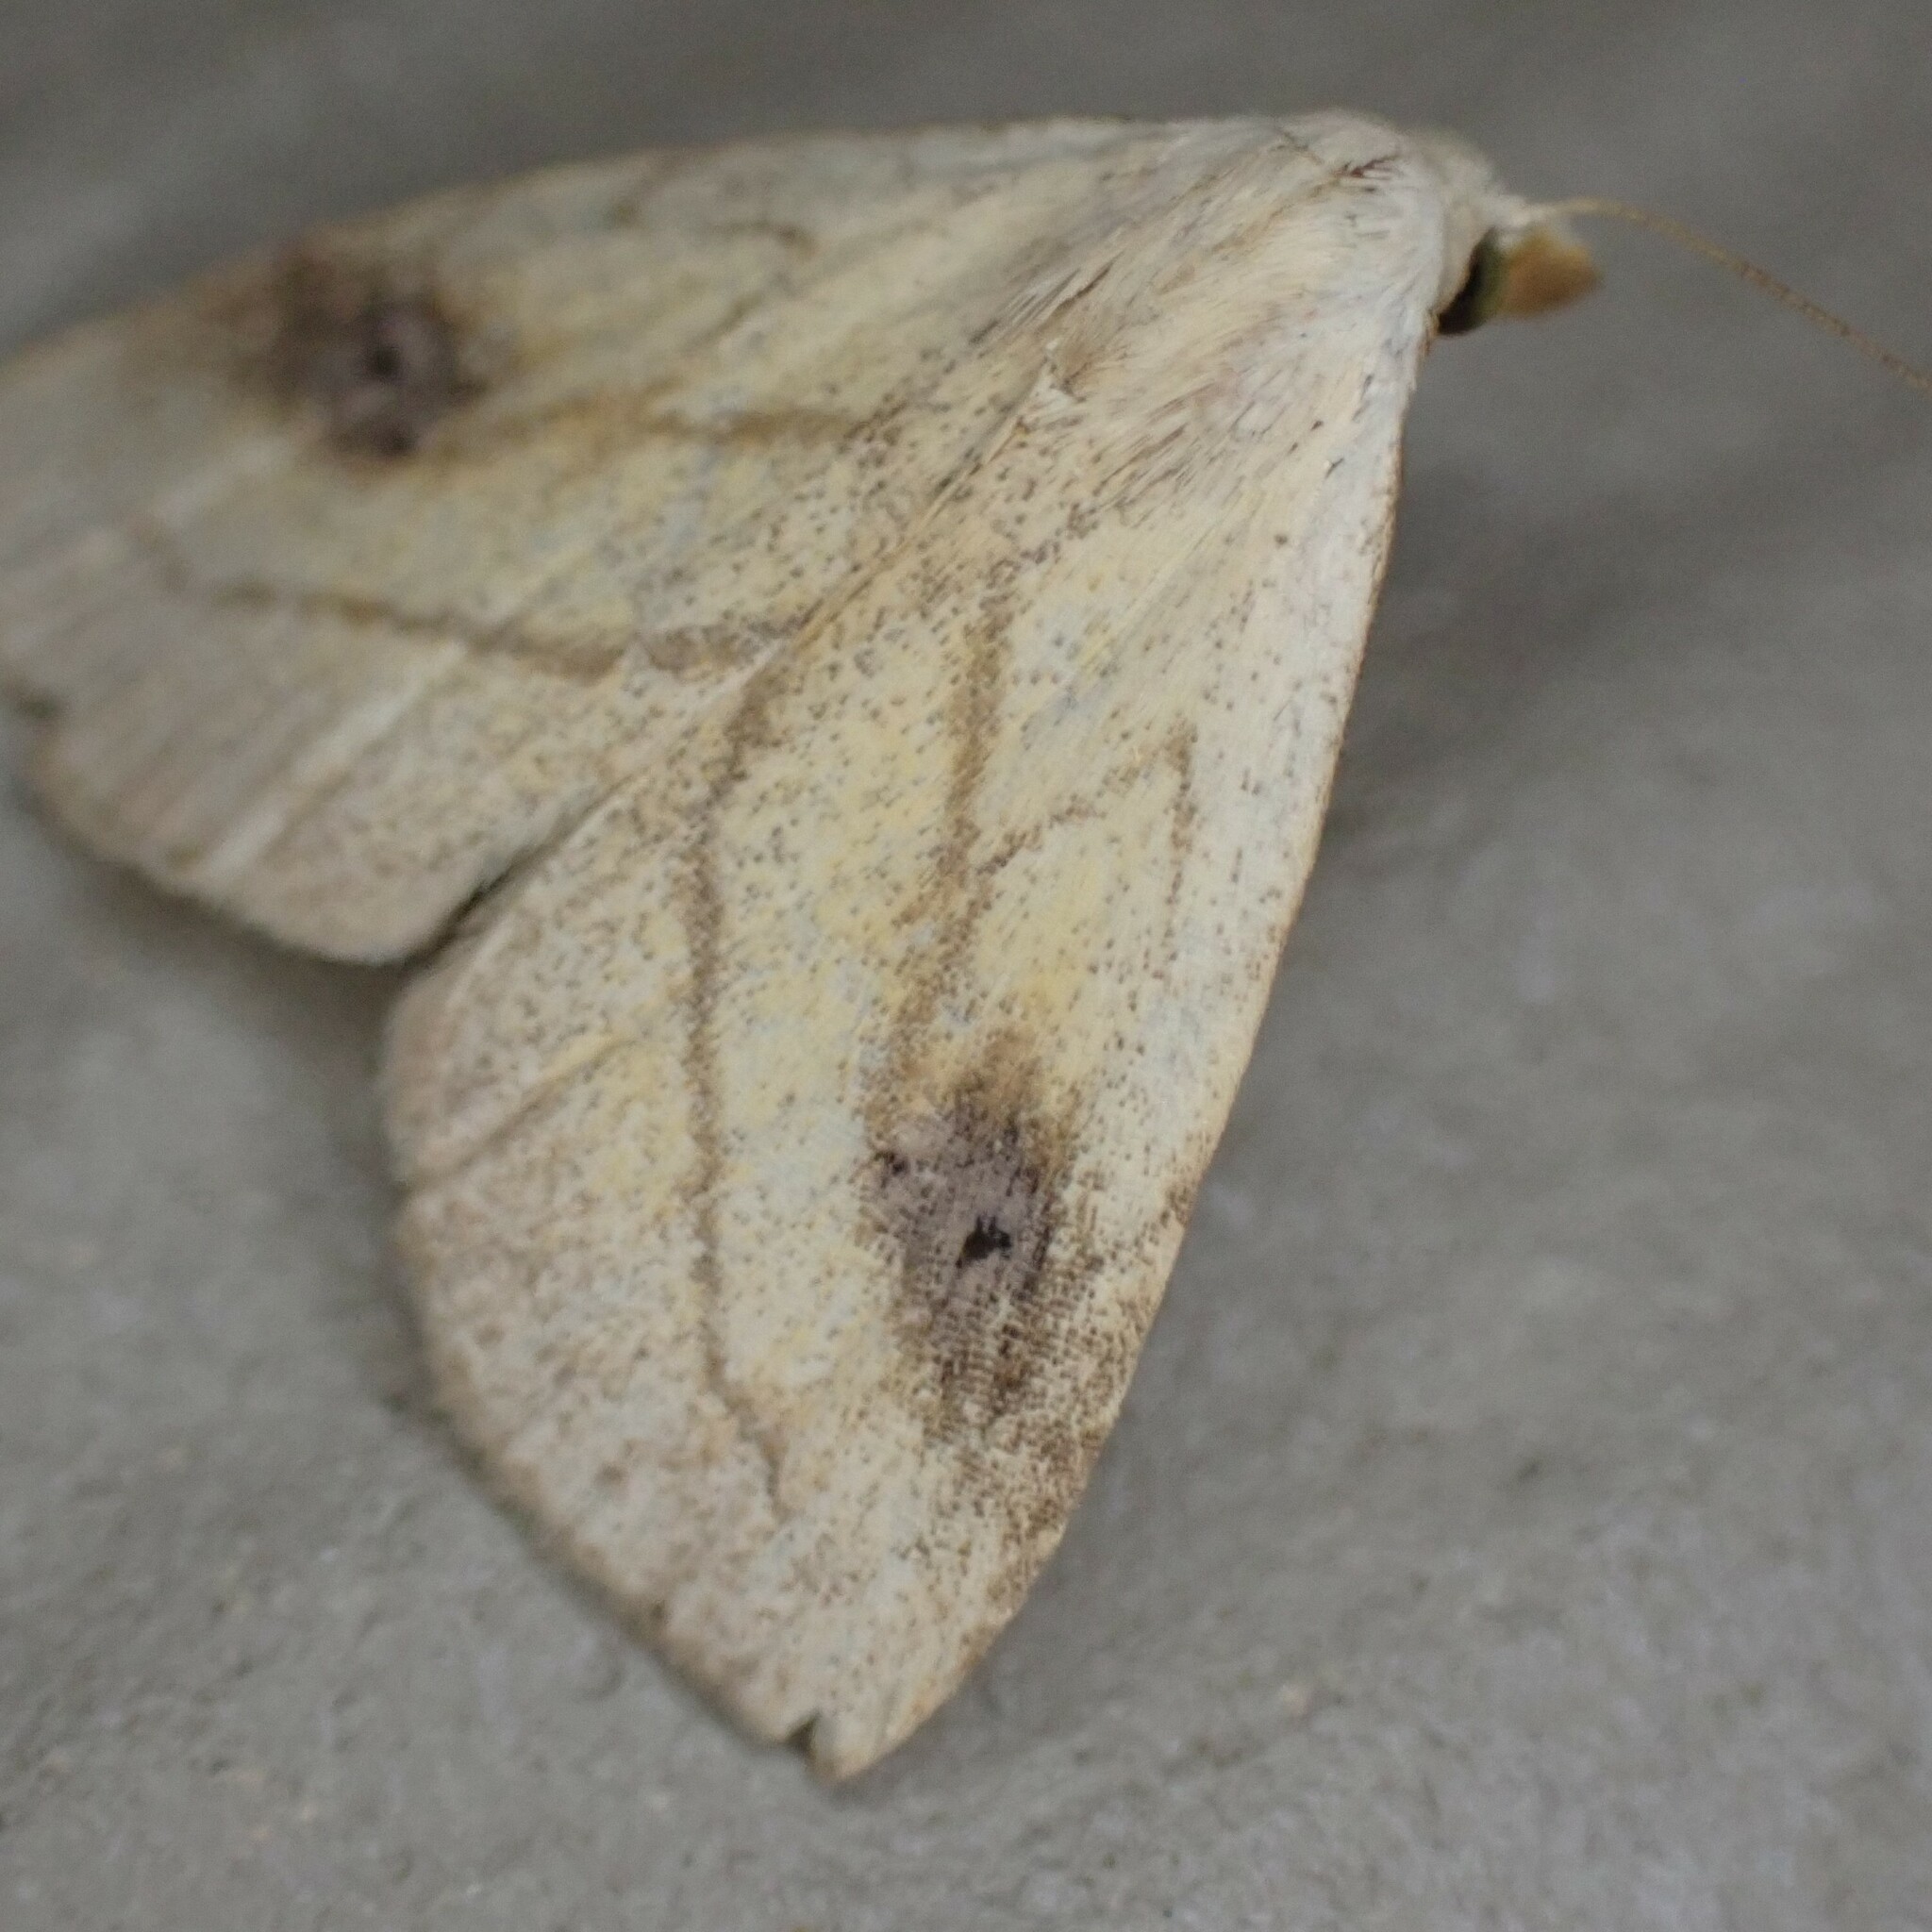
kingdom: Animalia
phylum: Arthropoda
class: Insecta
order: Lepidoptera
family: Erebidae
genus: Rivula
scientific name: Rivula propinqualis
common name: Spotted grass moth
